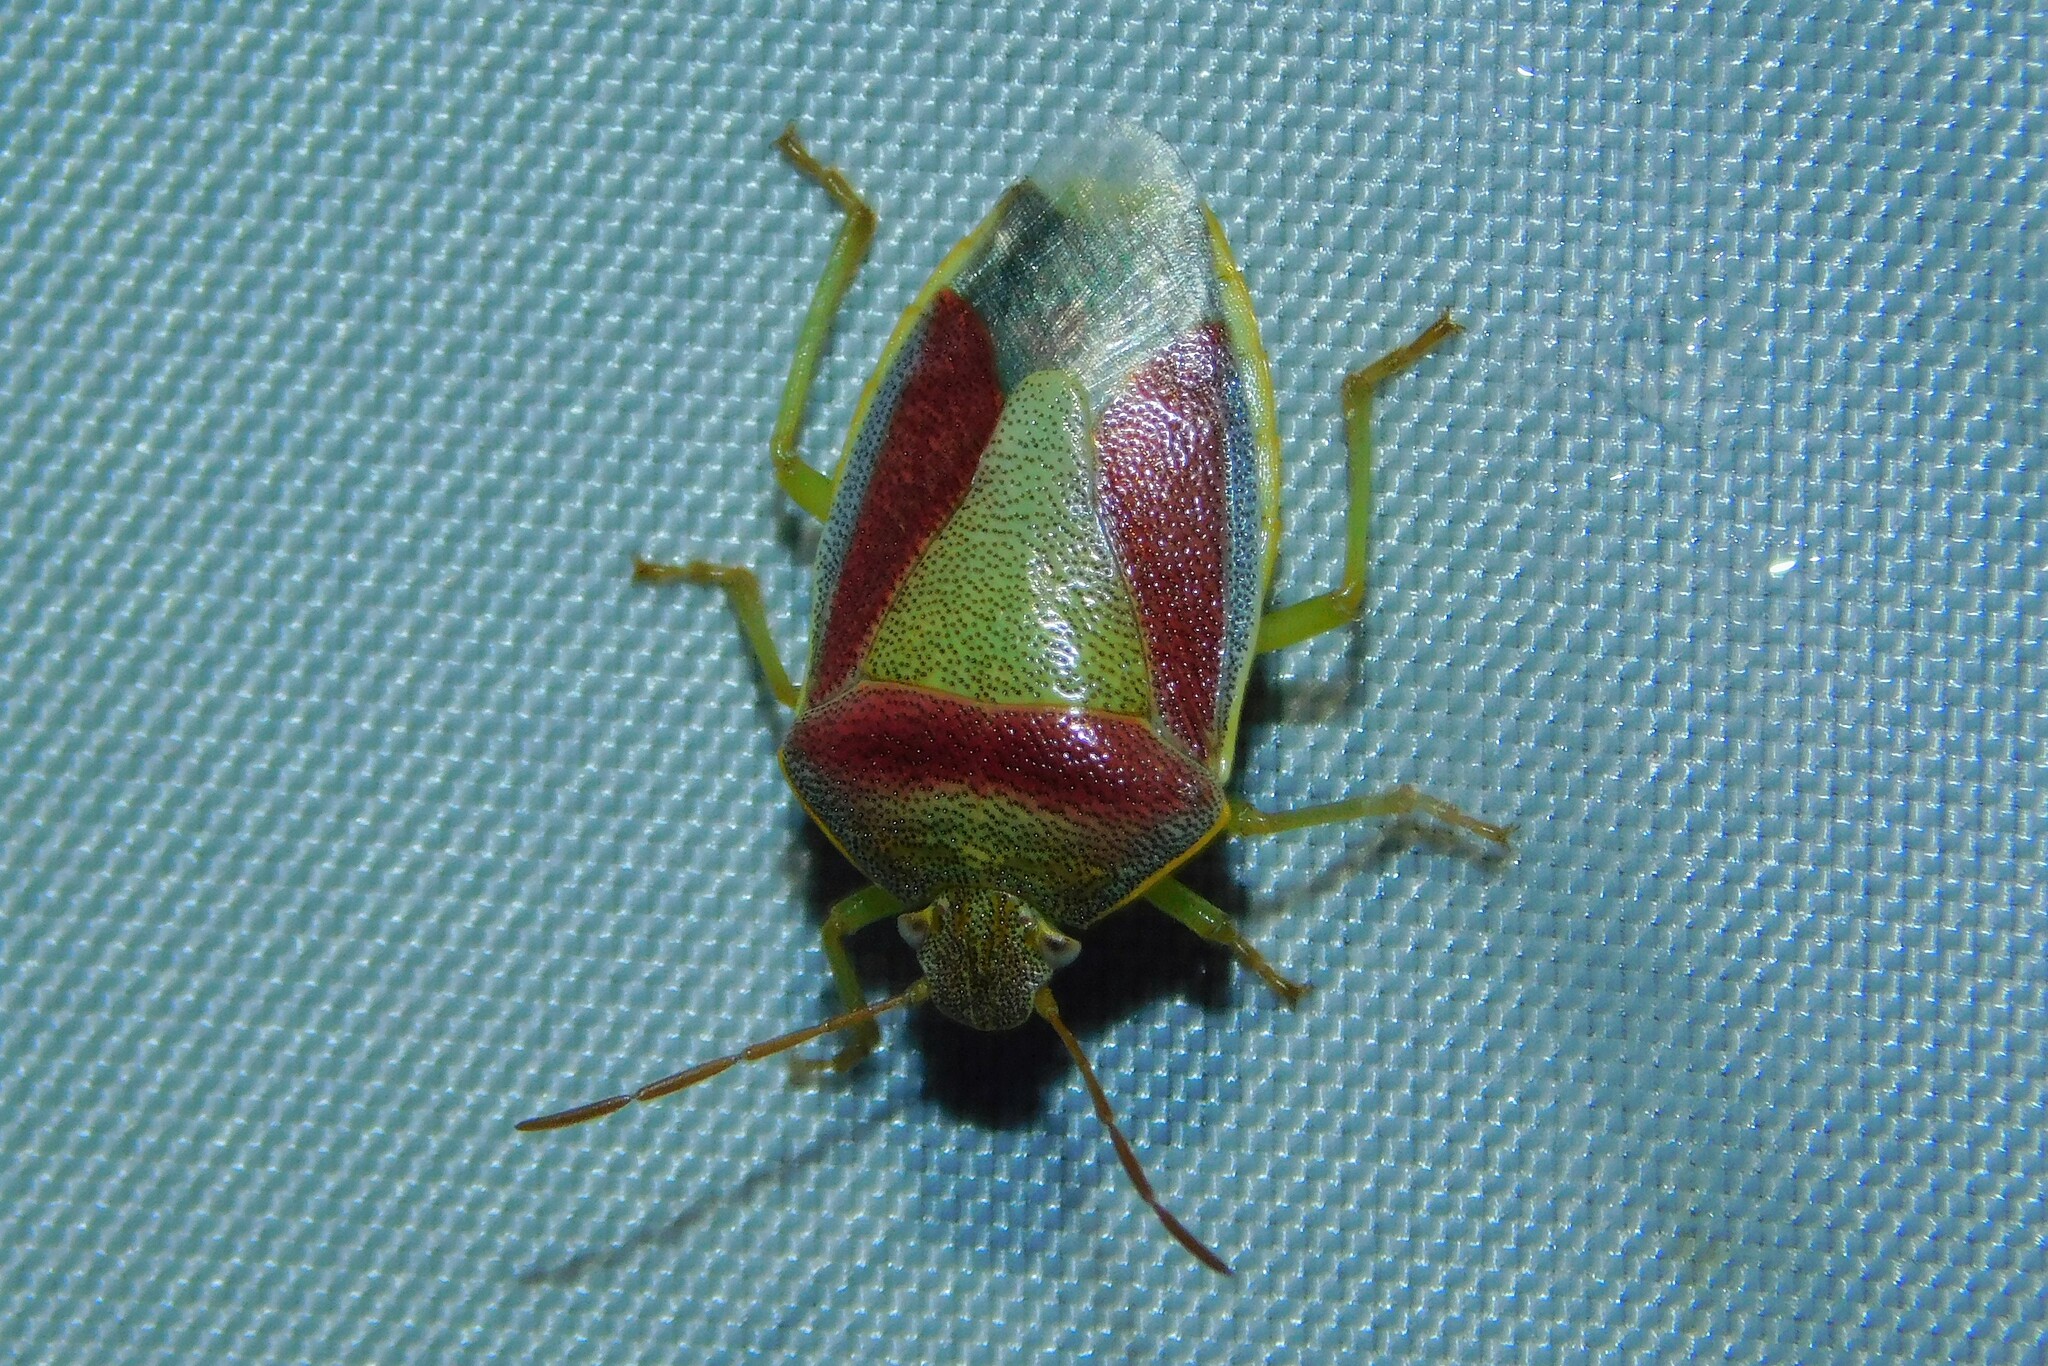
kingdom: Animalia
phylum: Arthropoda
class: Insecta
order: Hemiptera
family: Pentatomidae
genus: Piezodorus
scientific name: Piezodorus lituratus
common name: Stink bug
